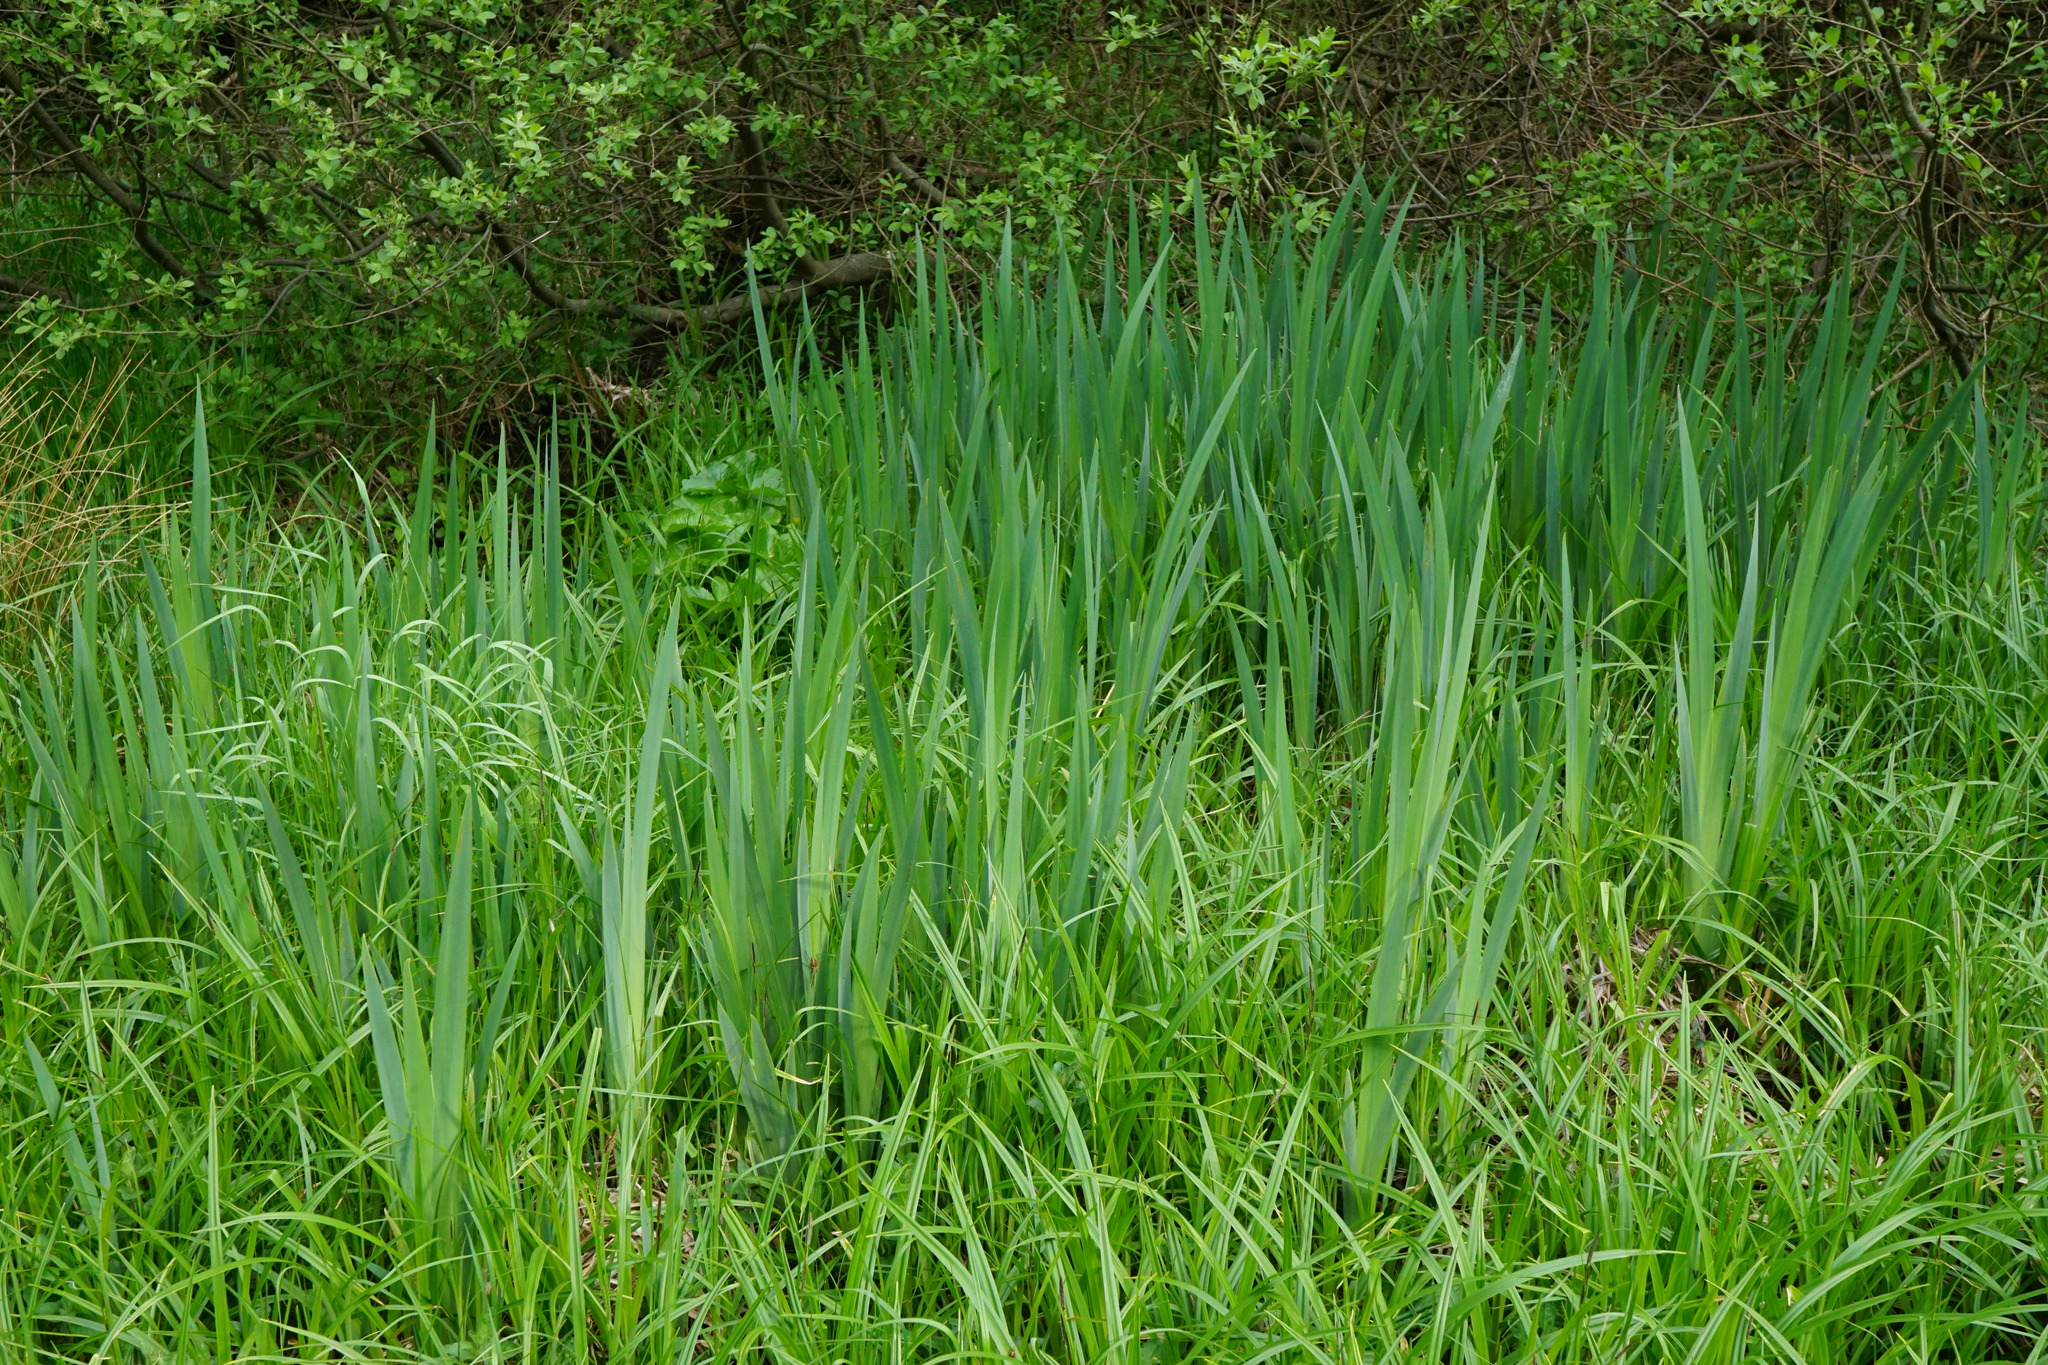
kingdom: Plantae
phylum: Tracheophyta
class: Liliopsida
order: Asparagales
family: Iridaceae
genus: Iris
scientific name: Iris pseudacorus
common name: Yellow flag
